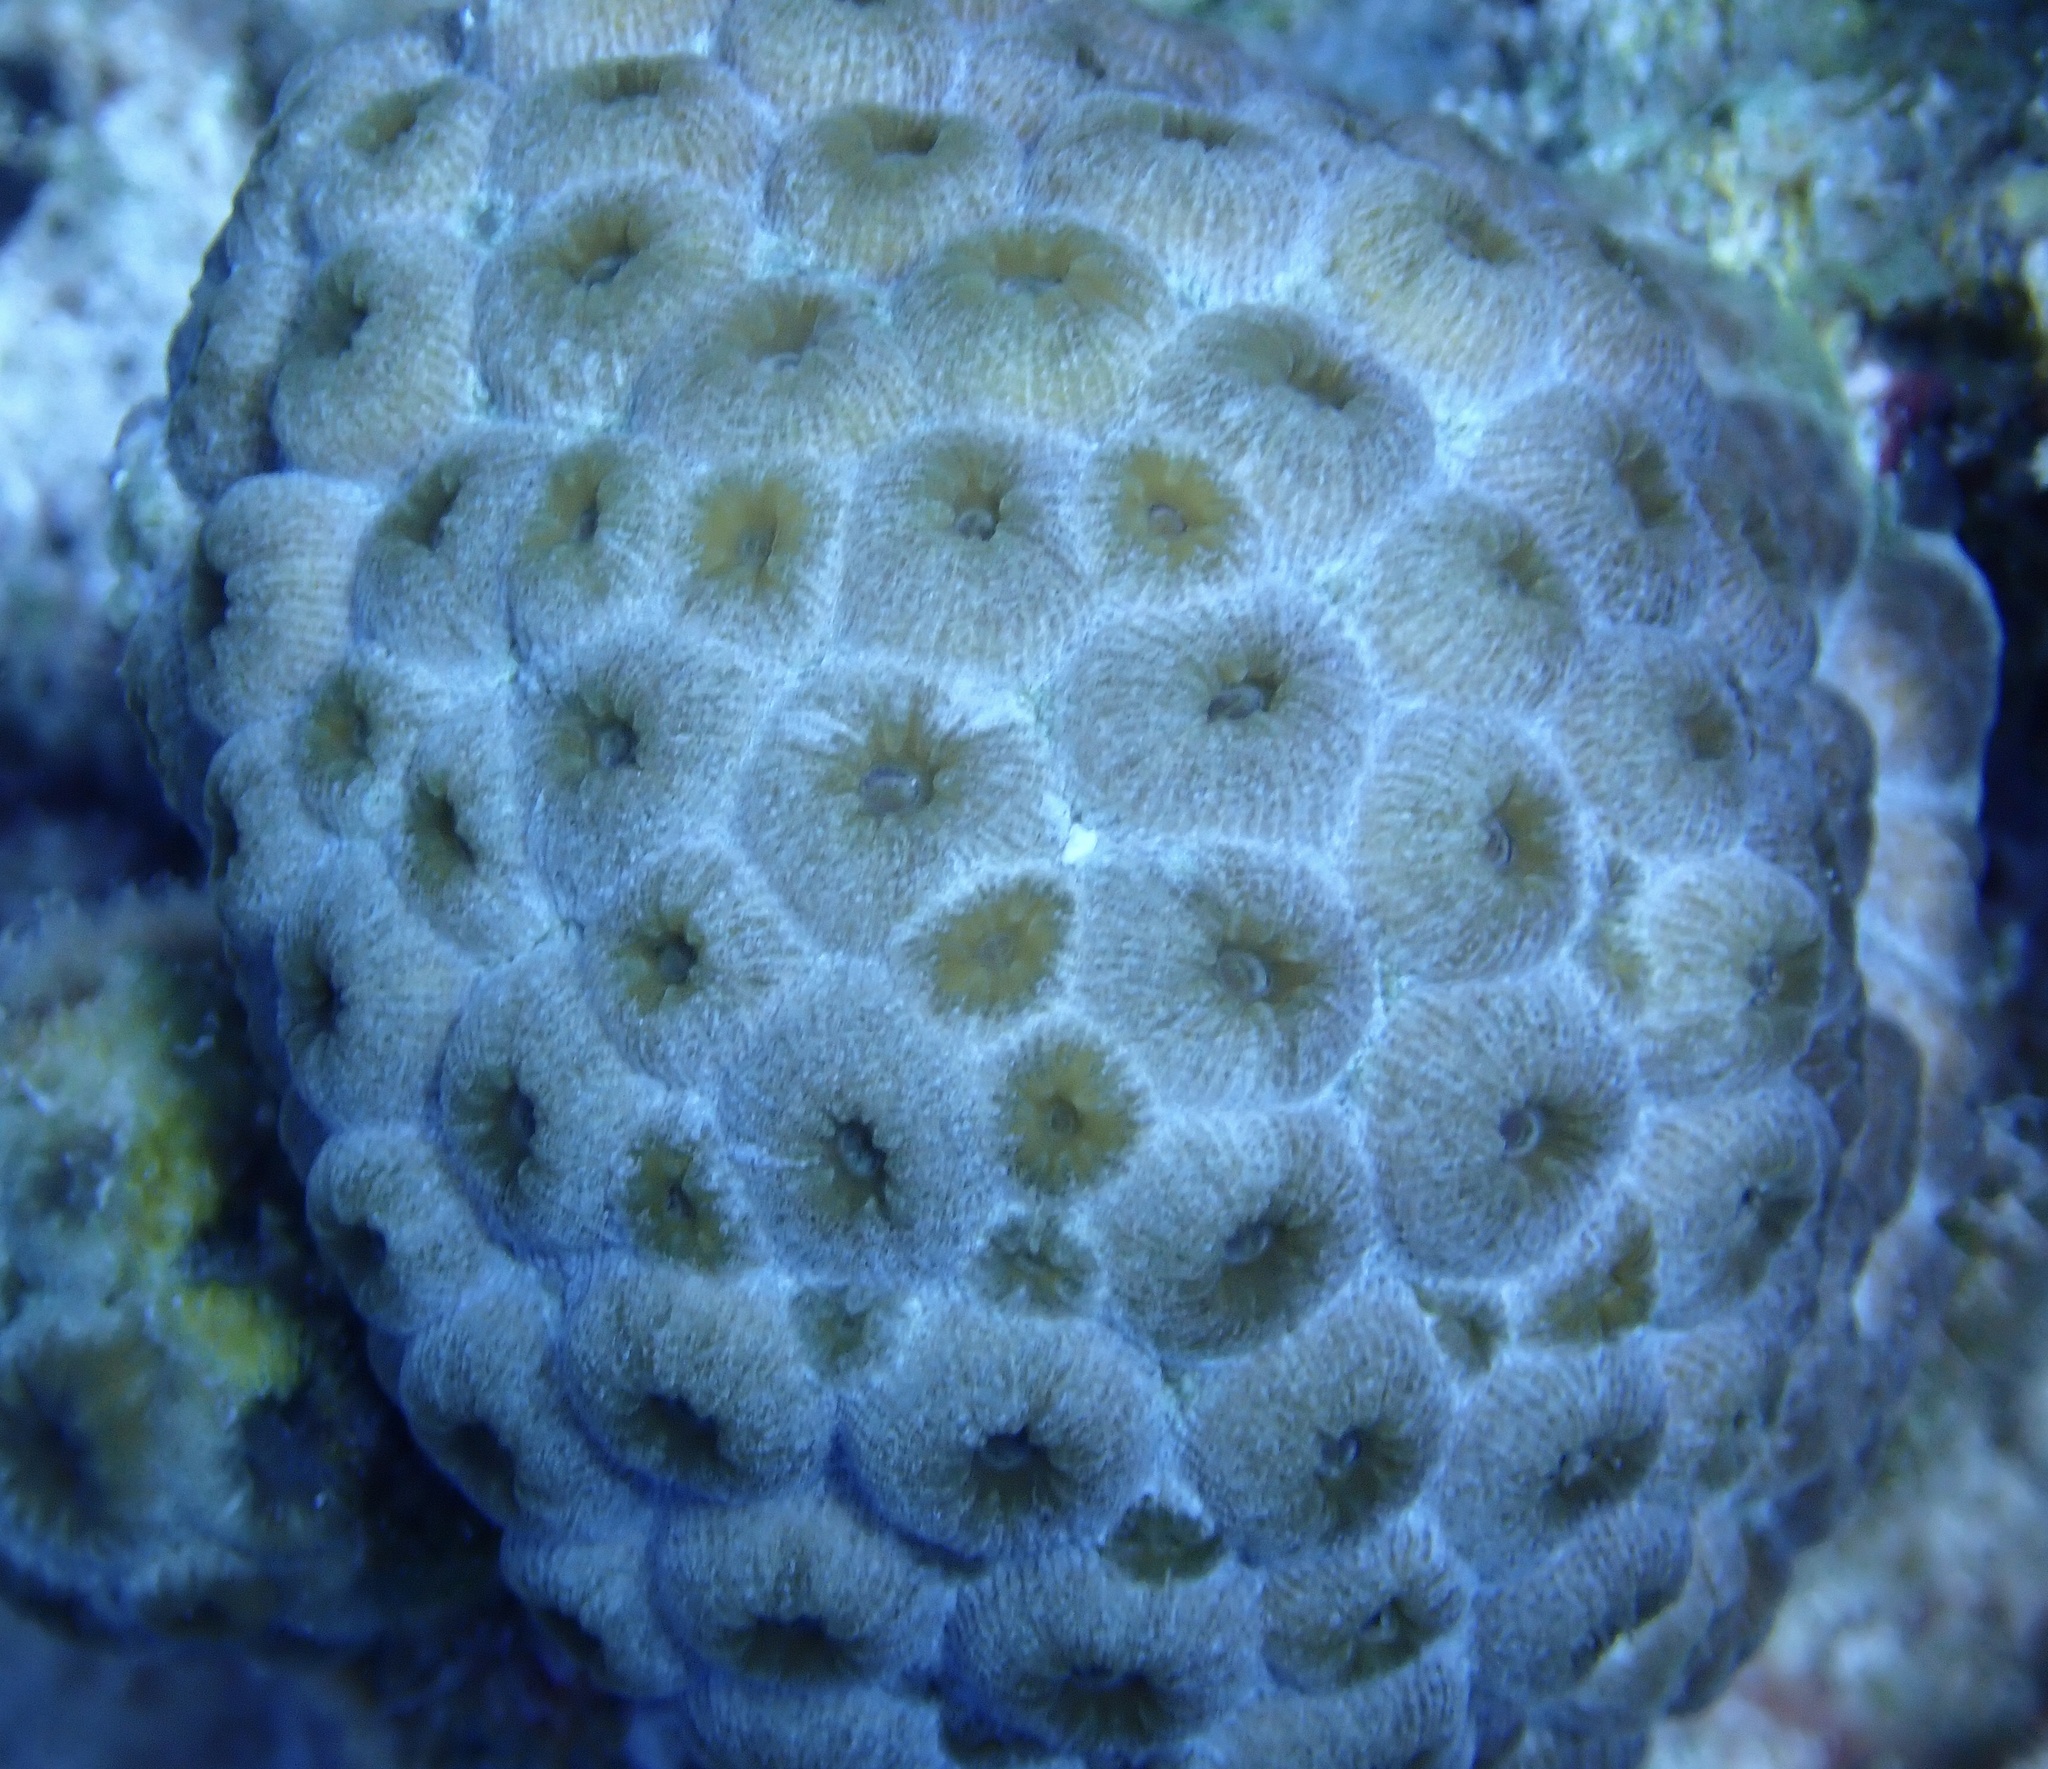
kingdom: Animalia
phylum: Cnidaria
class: Anthozoa
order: Scleractinia
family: Montastraeidae
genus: Montastraea
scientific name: Montastraea cavernosa
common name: Great star coral
